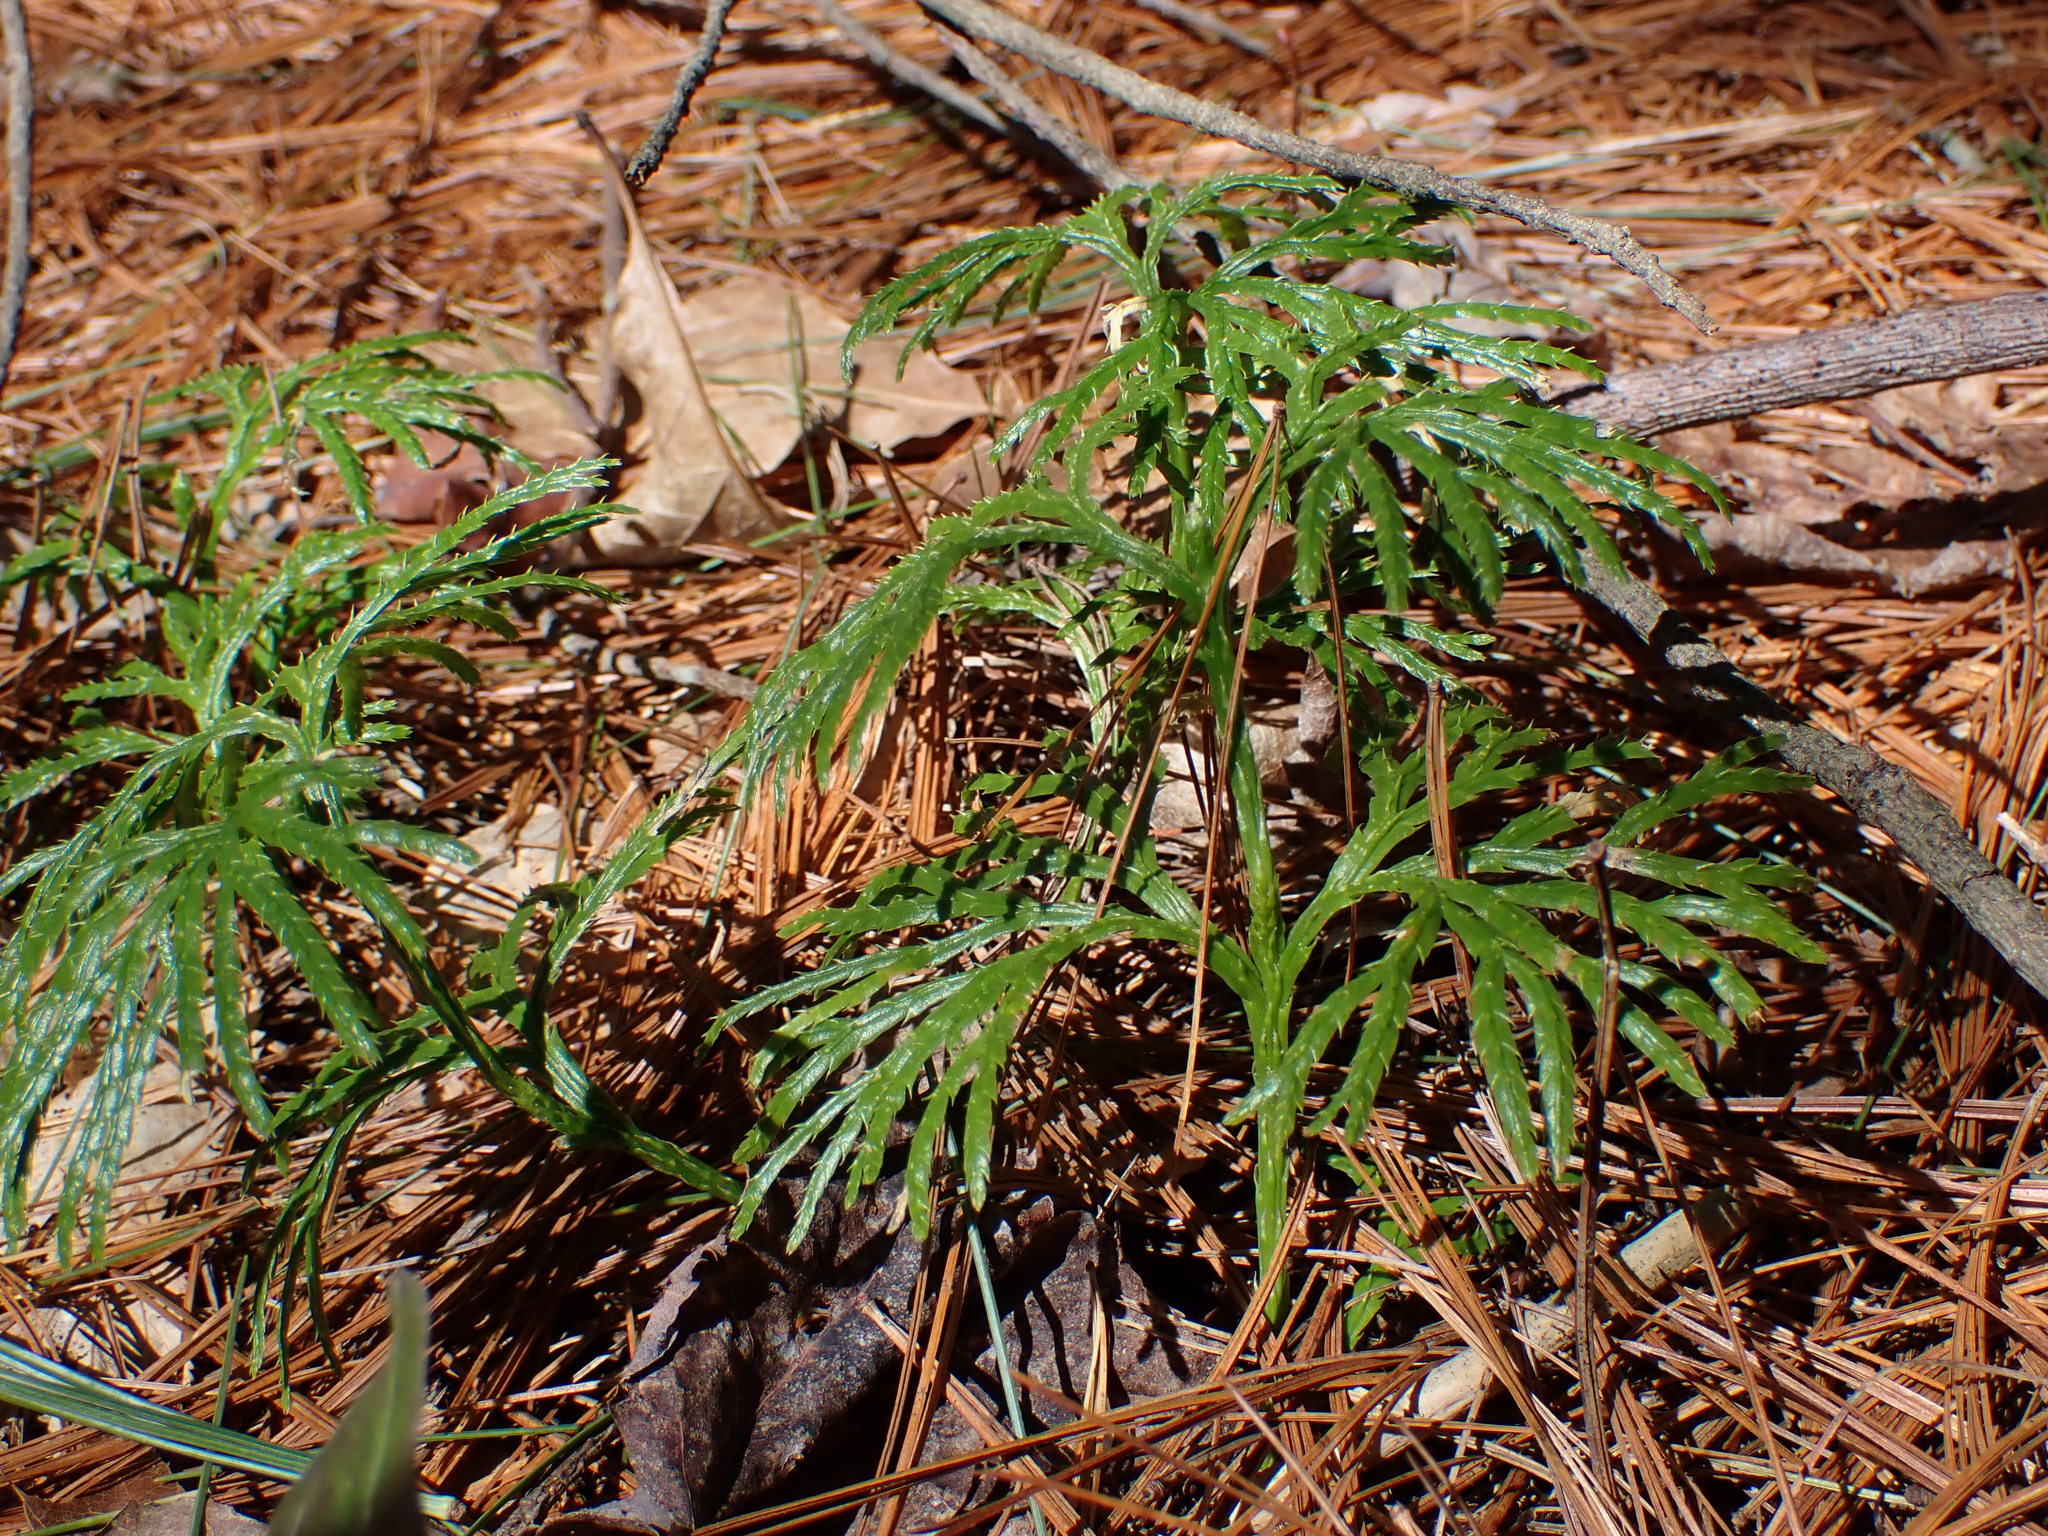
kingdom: Plantae
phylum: Tracheophyta
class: Lycopodiopsida
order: Lycopodiales
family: Lycopodiaceae
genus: Dendrolycopodium
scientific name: Dendrolycopodium obscurum
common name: Common ground-pine
